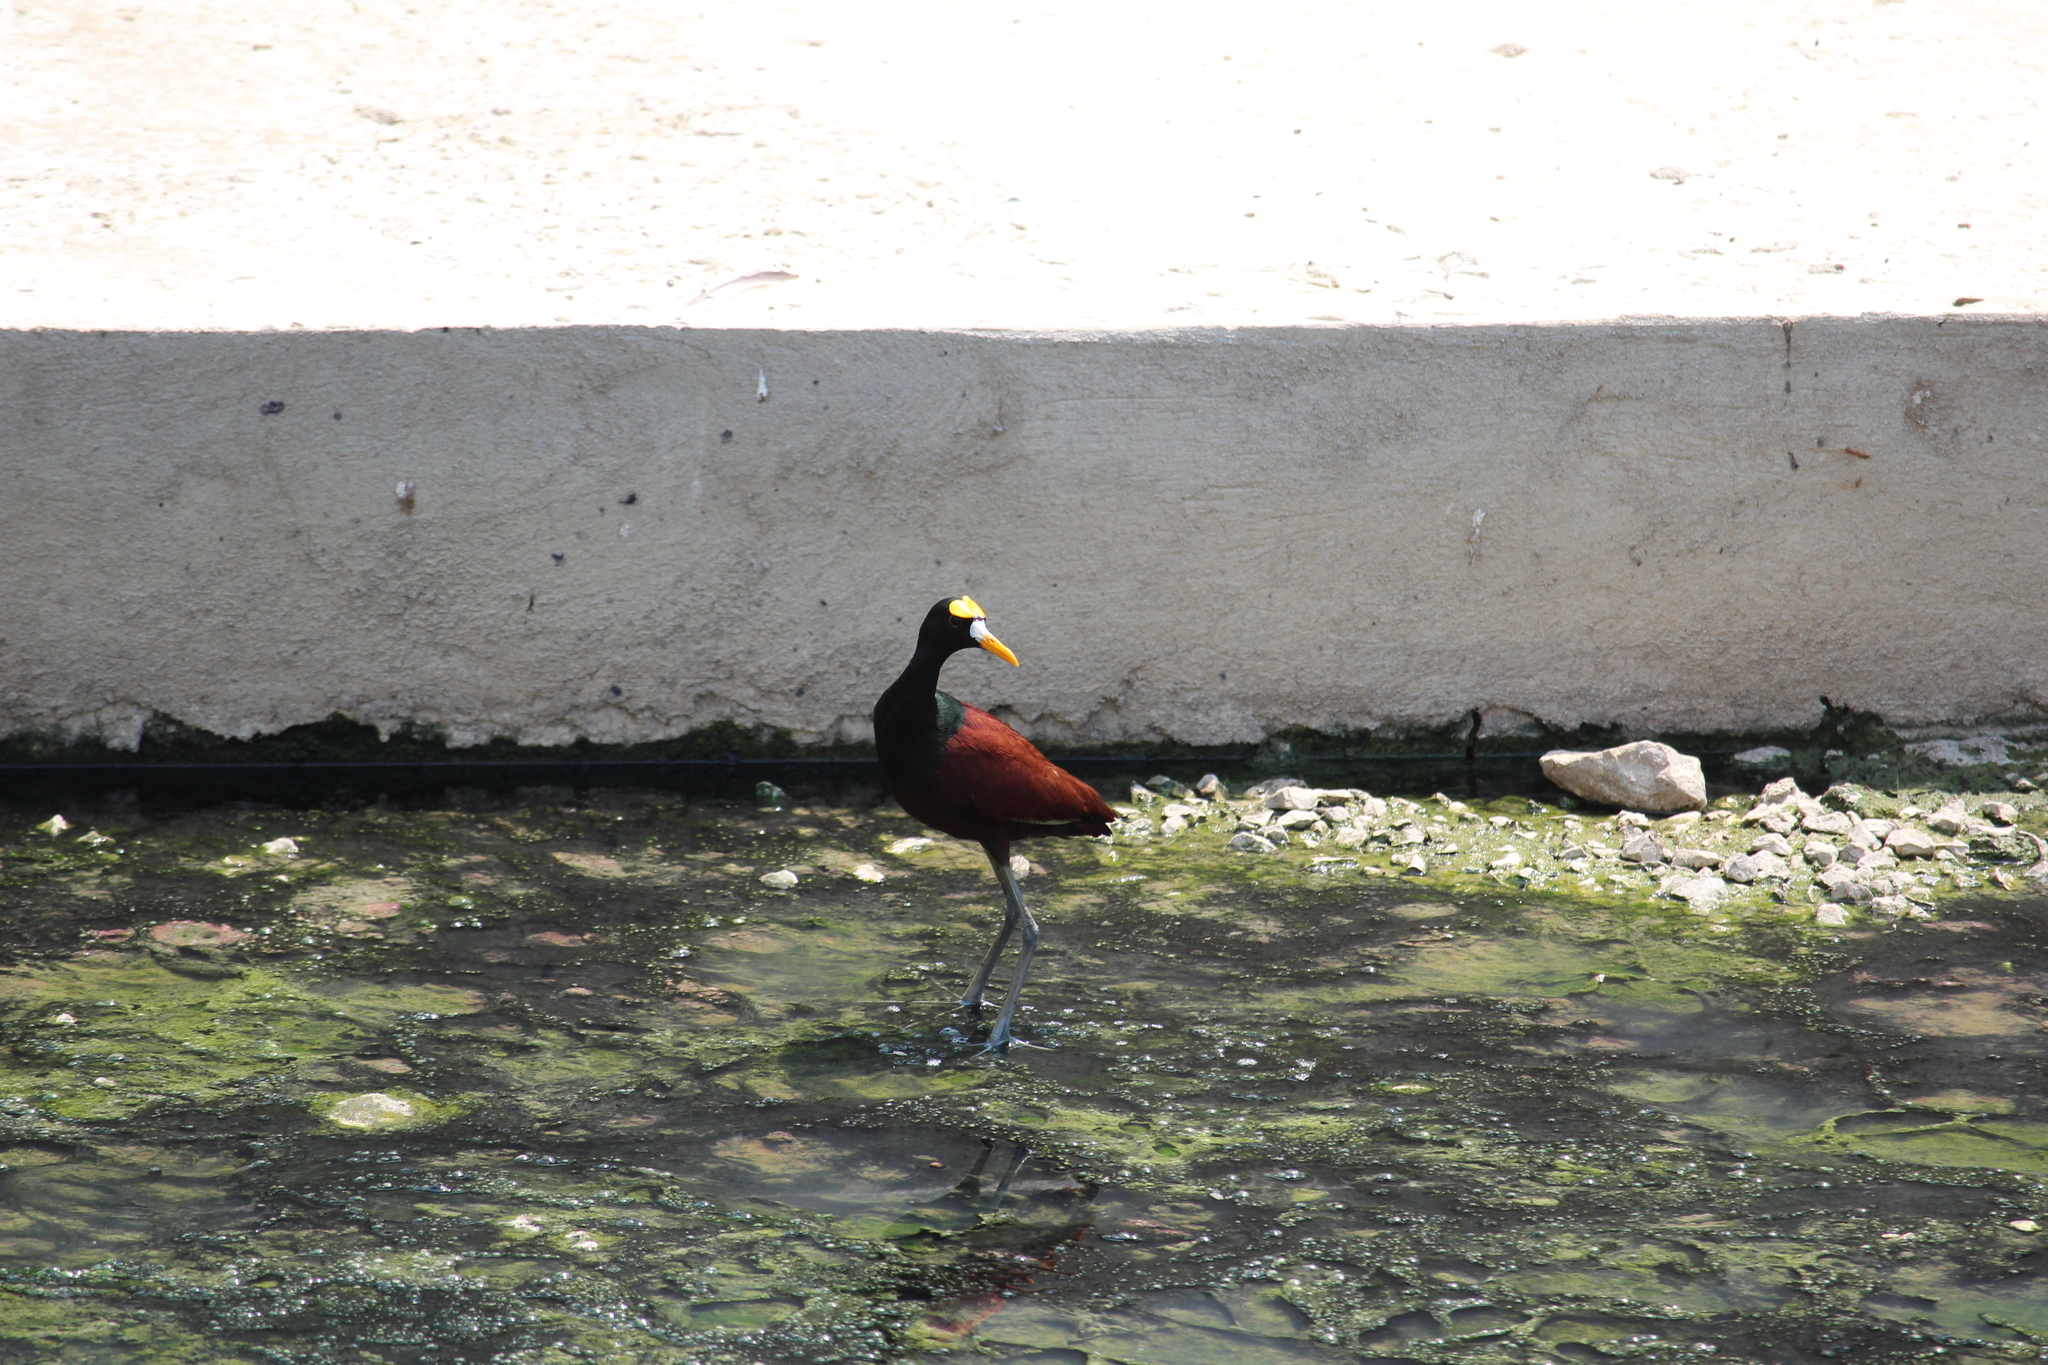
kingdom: Animalia
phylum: Chordata
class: Aves
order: Charadriiformes
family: Jacanidae
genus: Jacana
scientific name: Jacana spinosa
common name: Northern jacana
